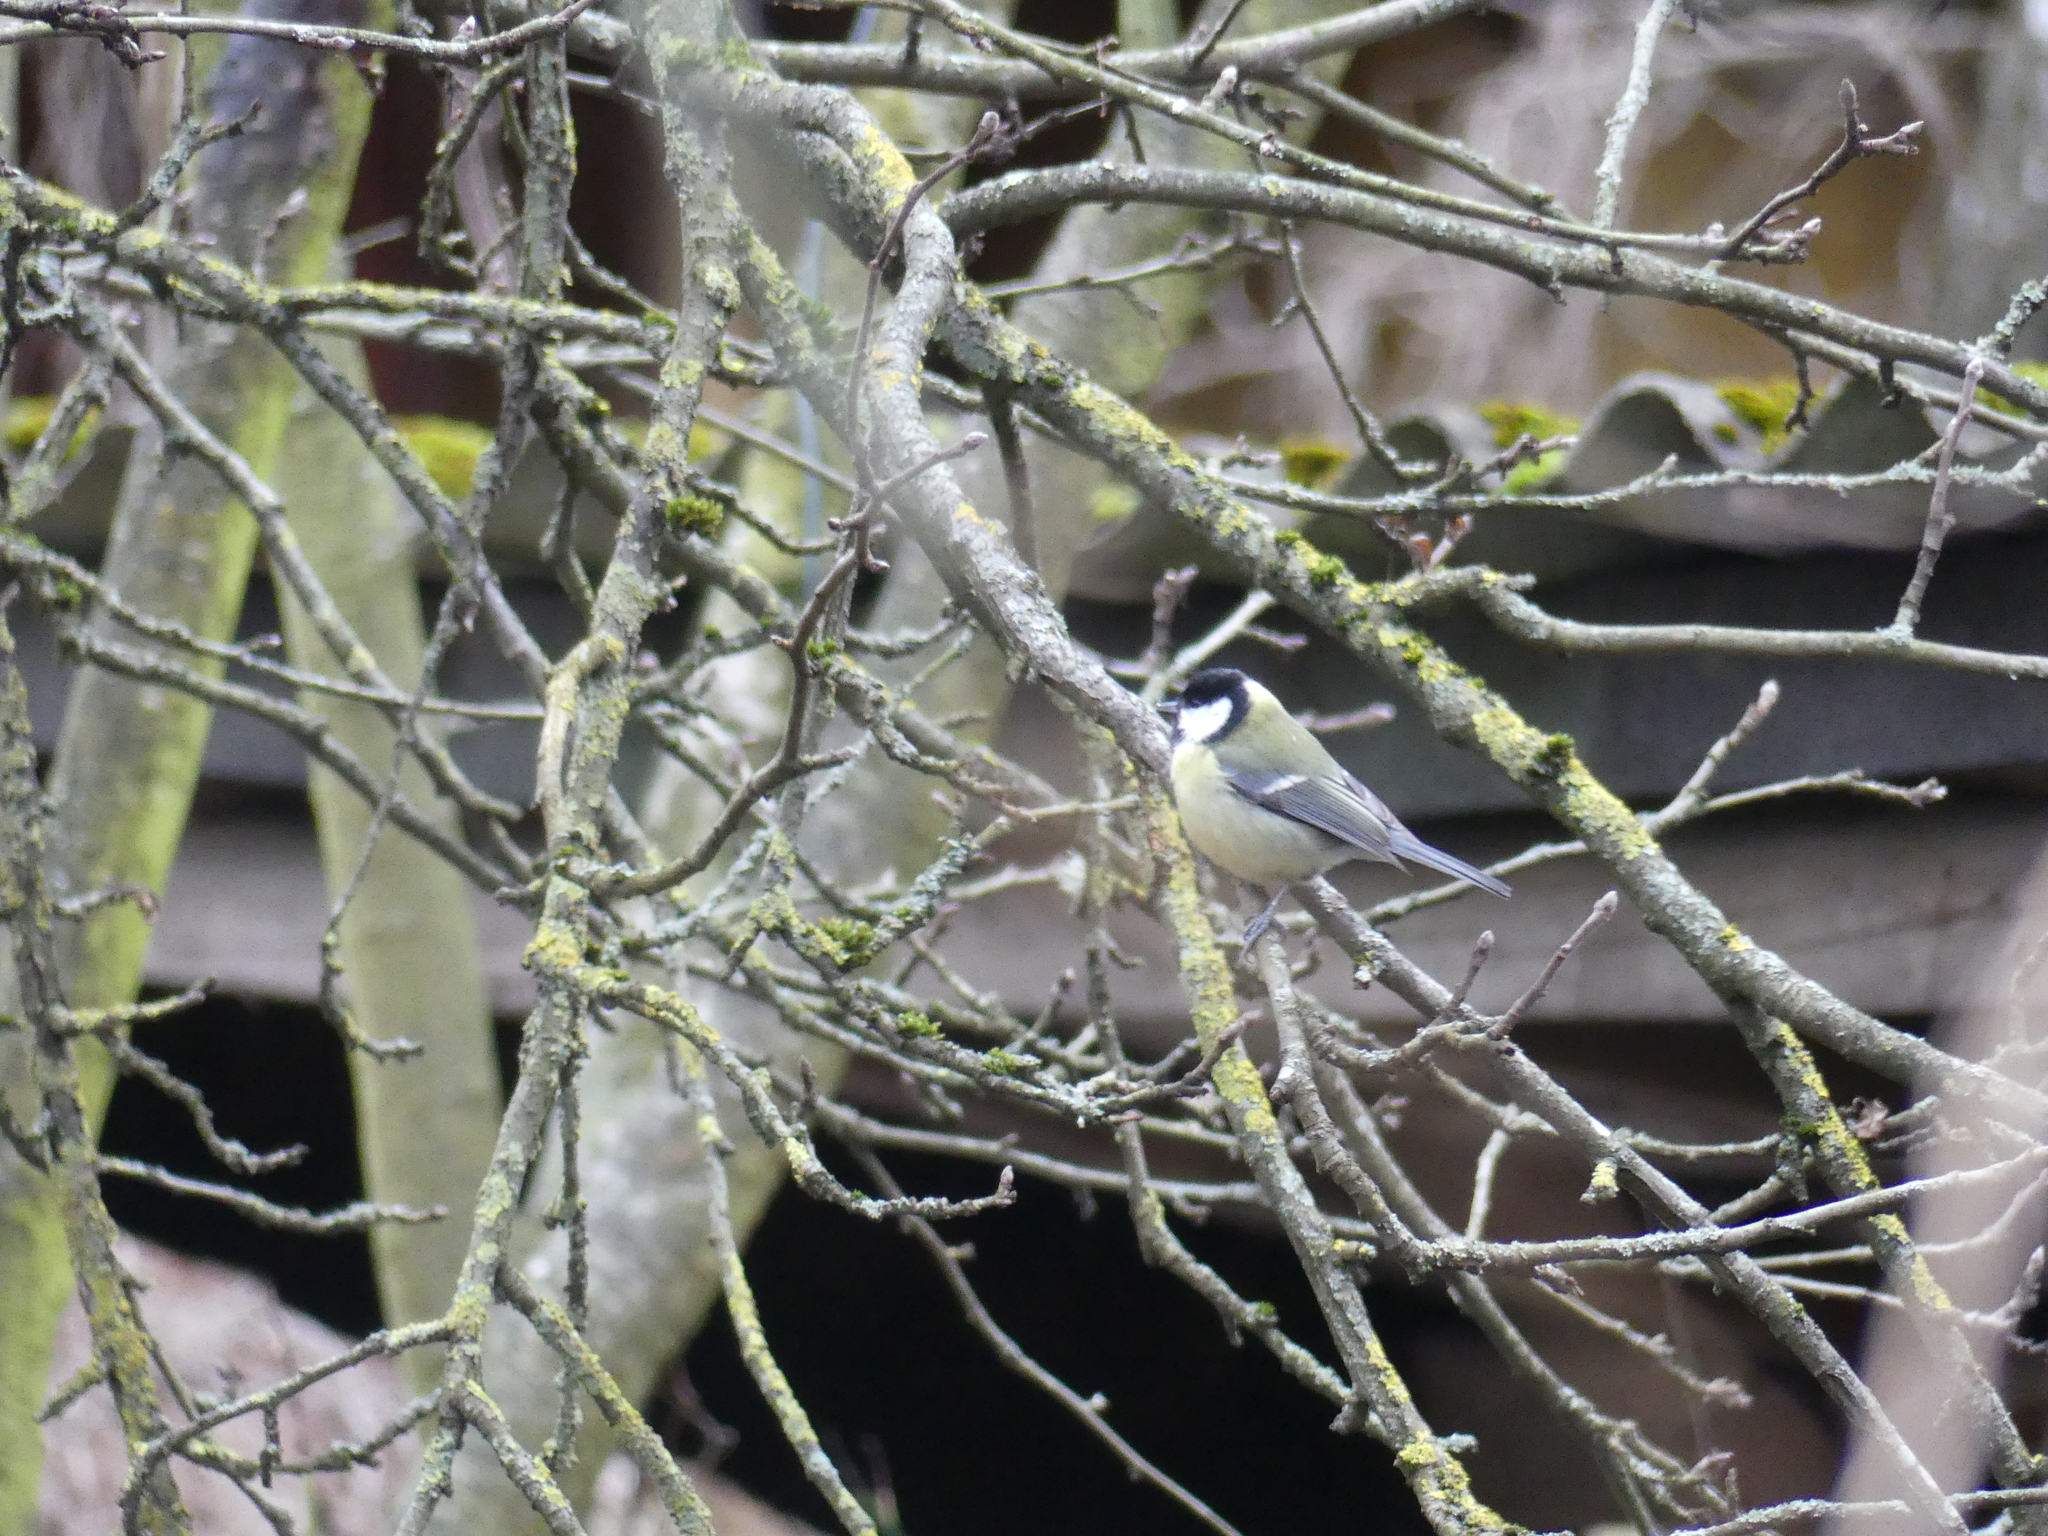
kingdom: Animalia
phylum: Chordata
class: Aves
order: Passeriformes
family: Paridae
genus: Parus
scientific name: Parus major
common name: Great tit
